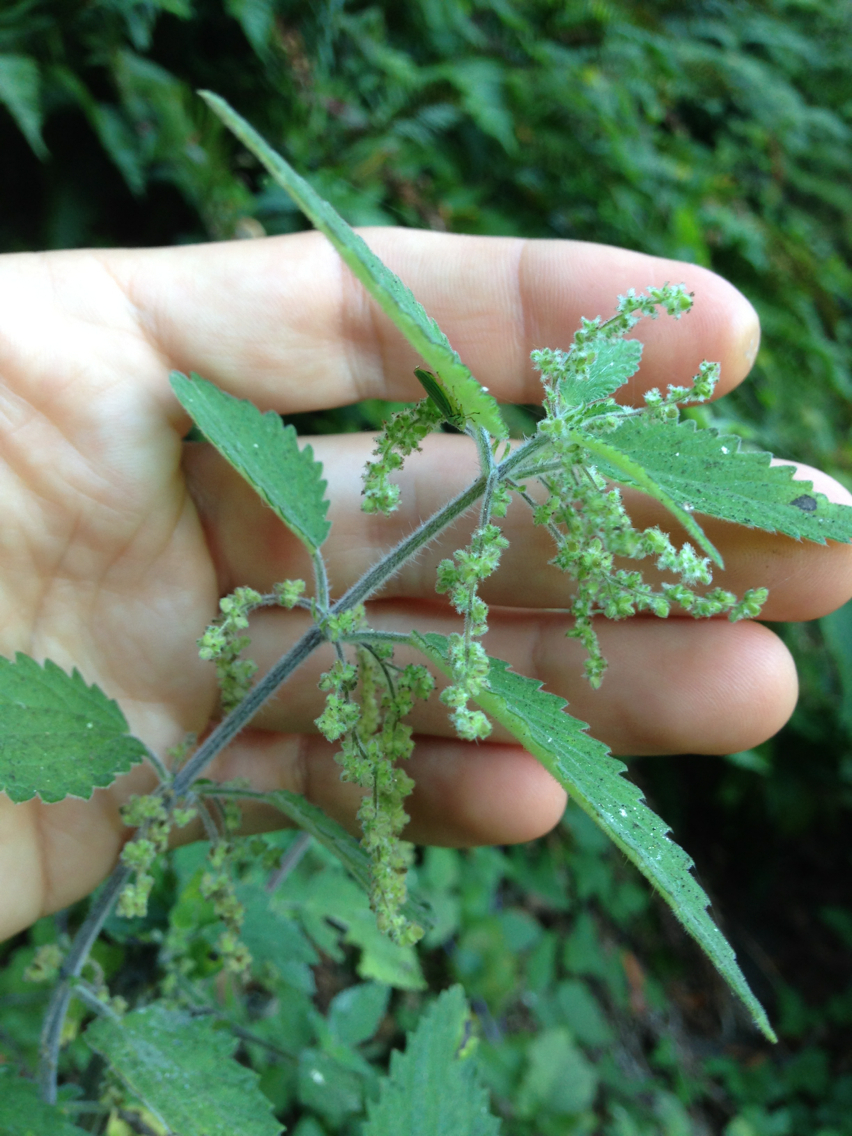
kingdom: Plantae
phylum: Tracheophyta
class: Magnoliopsida
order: Rosales
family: Urticaceae
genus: Urtica
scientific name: Urtica dioica
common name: Common nettle
